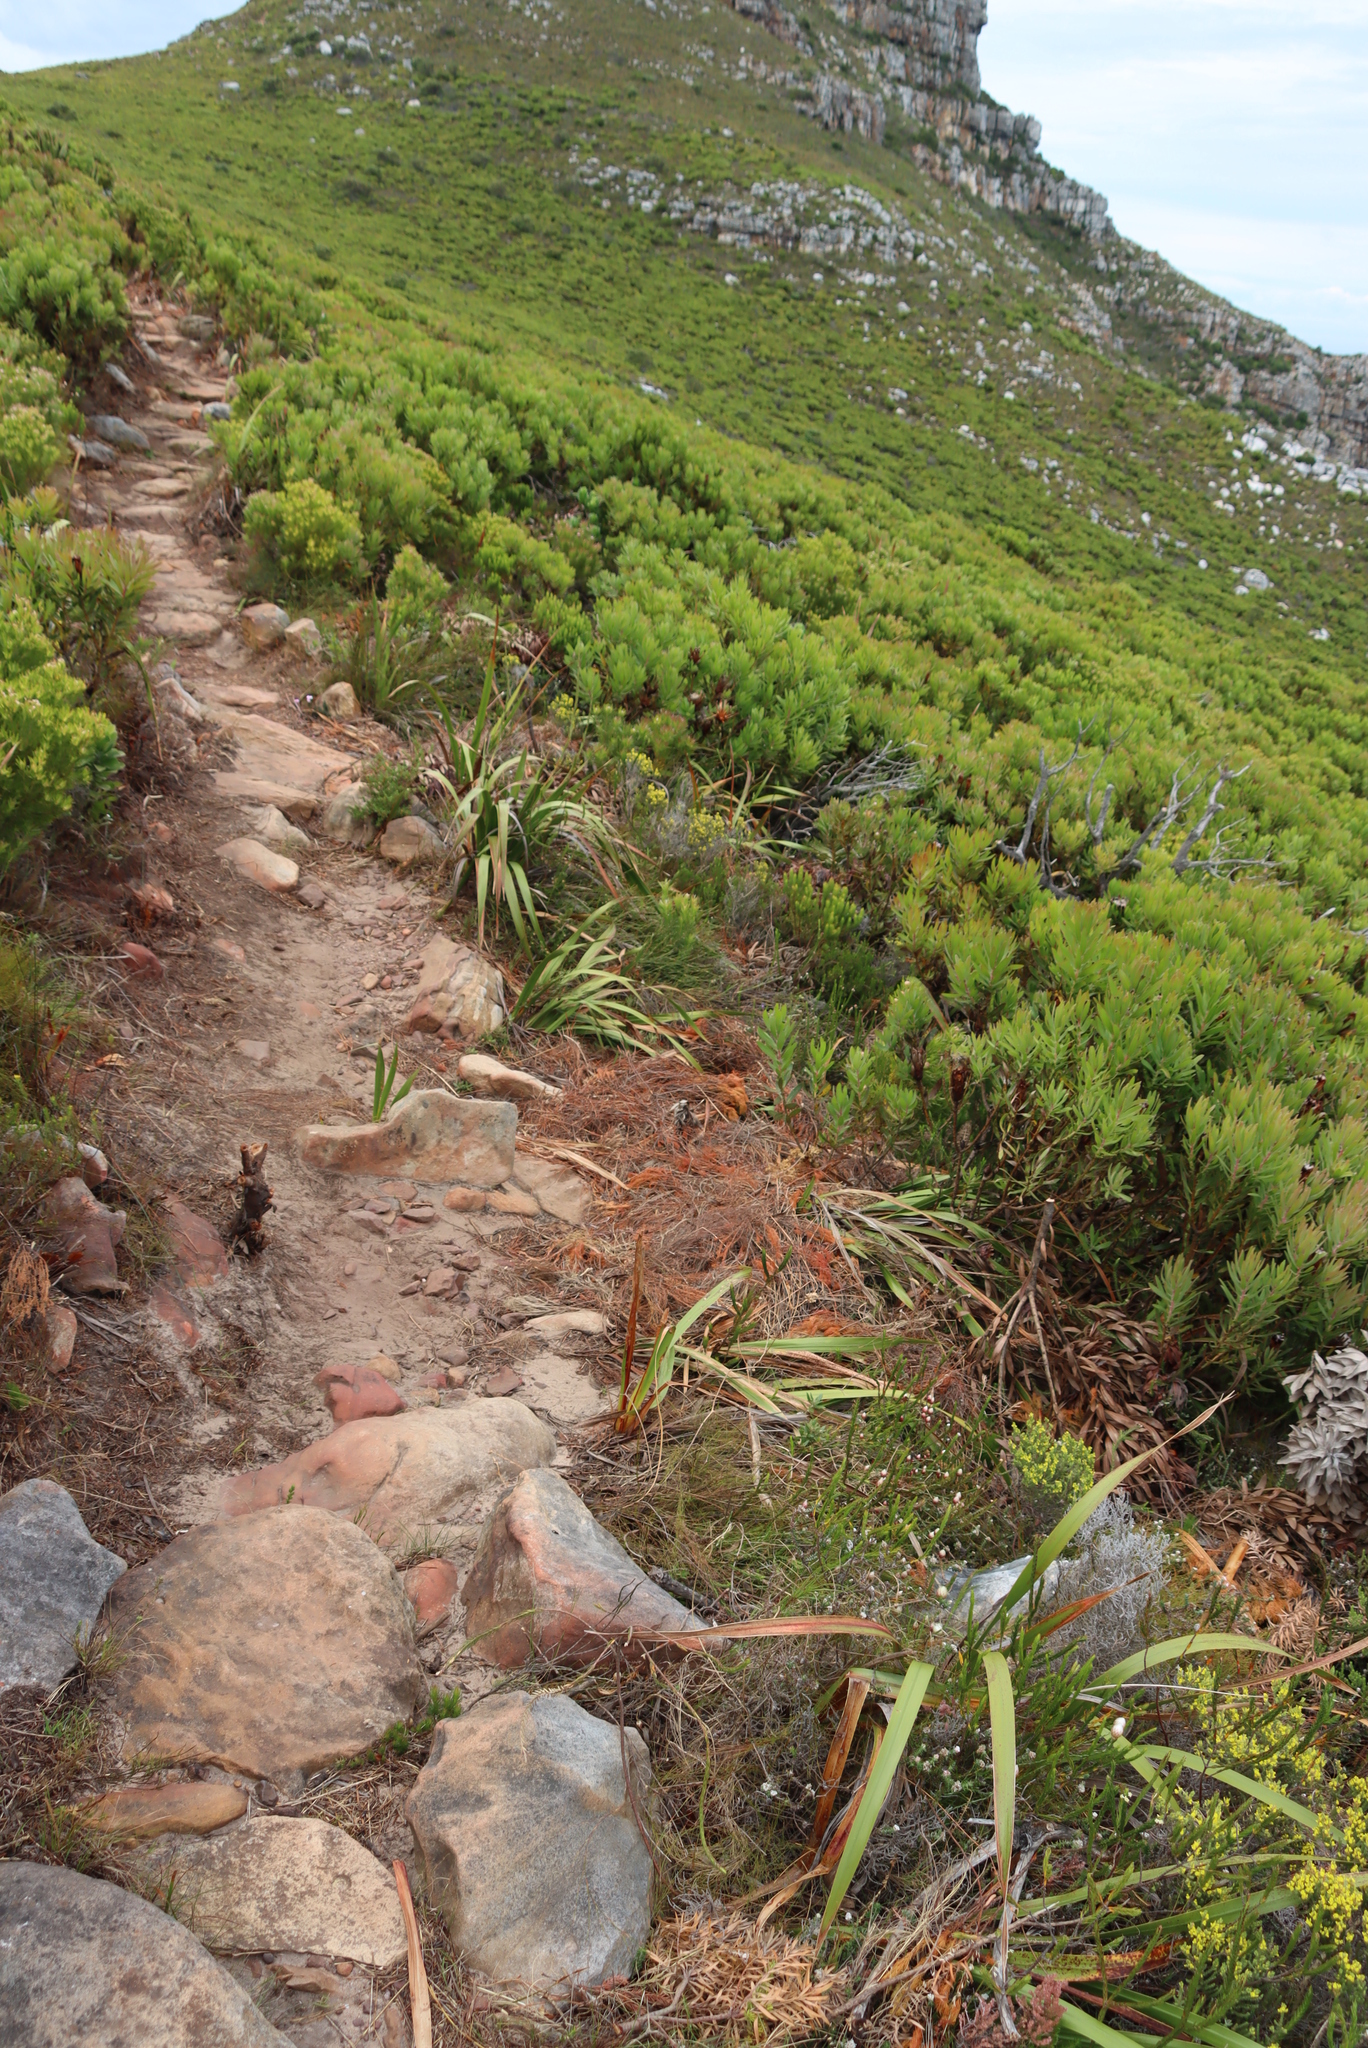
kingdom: Plantae
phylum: Tracheophyta
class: Magnoliopsida
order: Fabales
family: Fabaceae
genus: Aspalathus
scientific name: Aspalathus ericifolia
